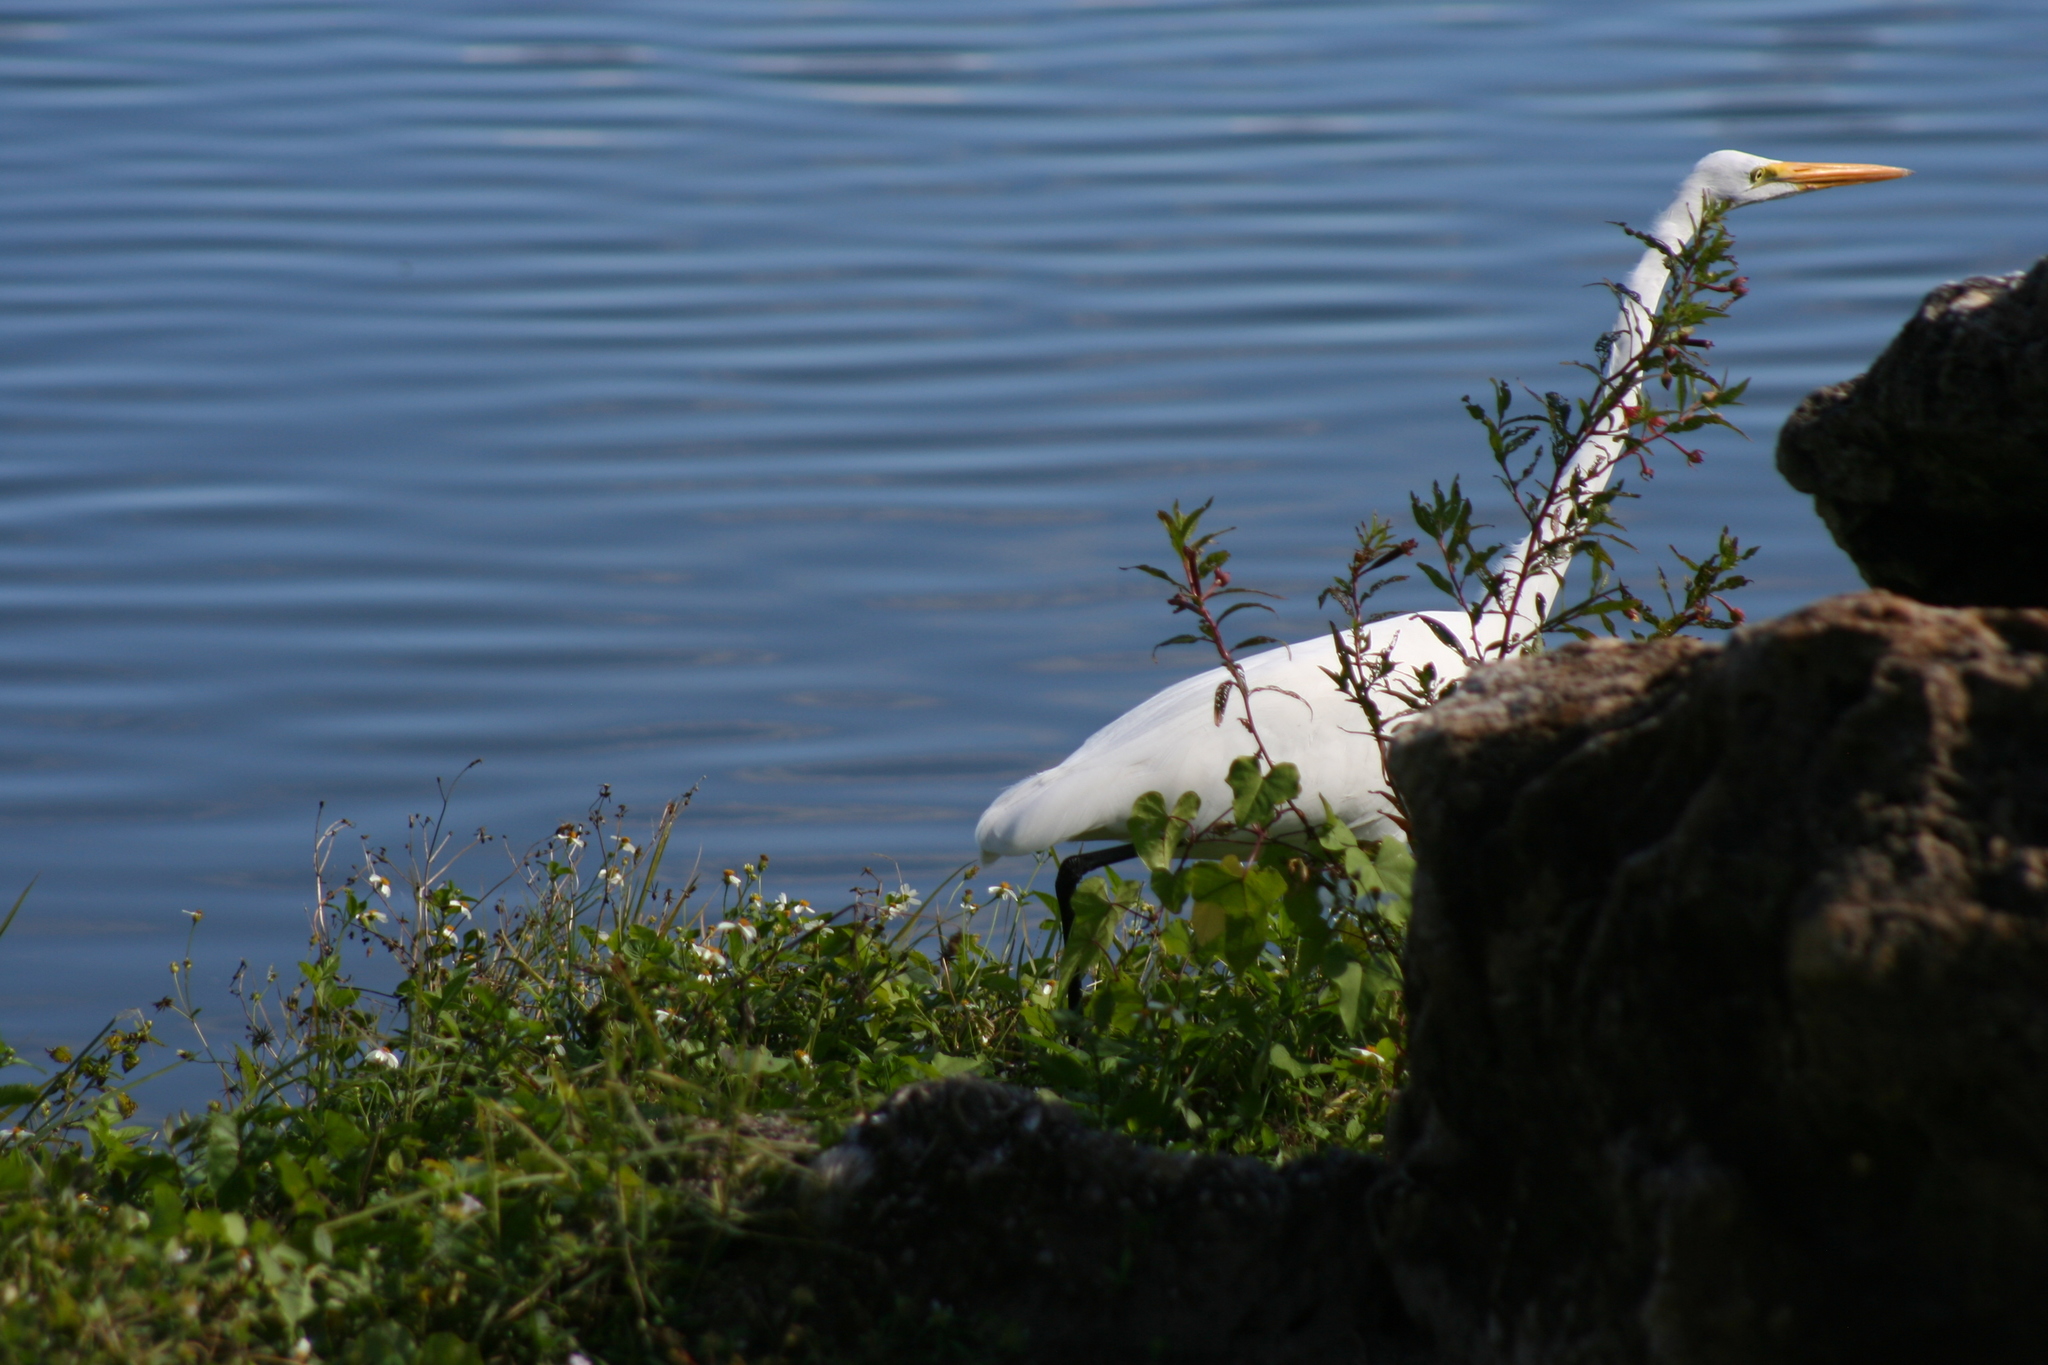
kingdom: Animalia
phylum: Chordata
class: Aves
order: Pelecaniformes
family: Ardeidae
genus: Ardea
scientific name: Ardea alba
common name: Great egret
